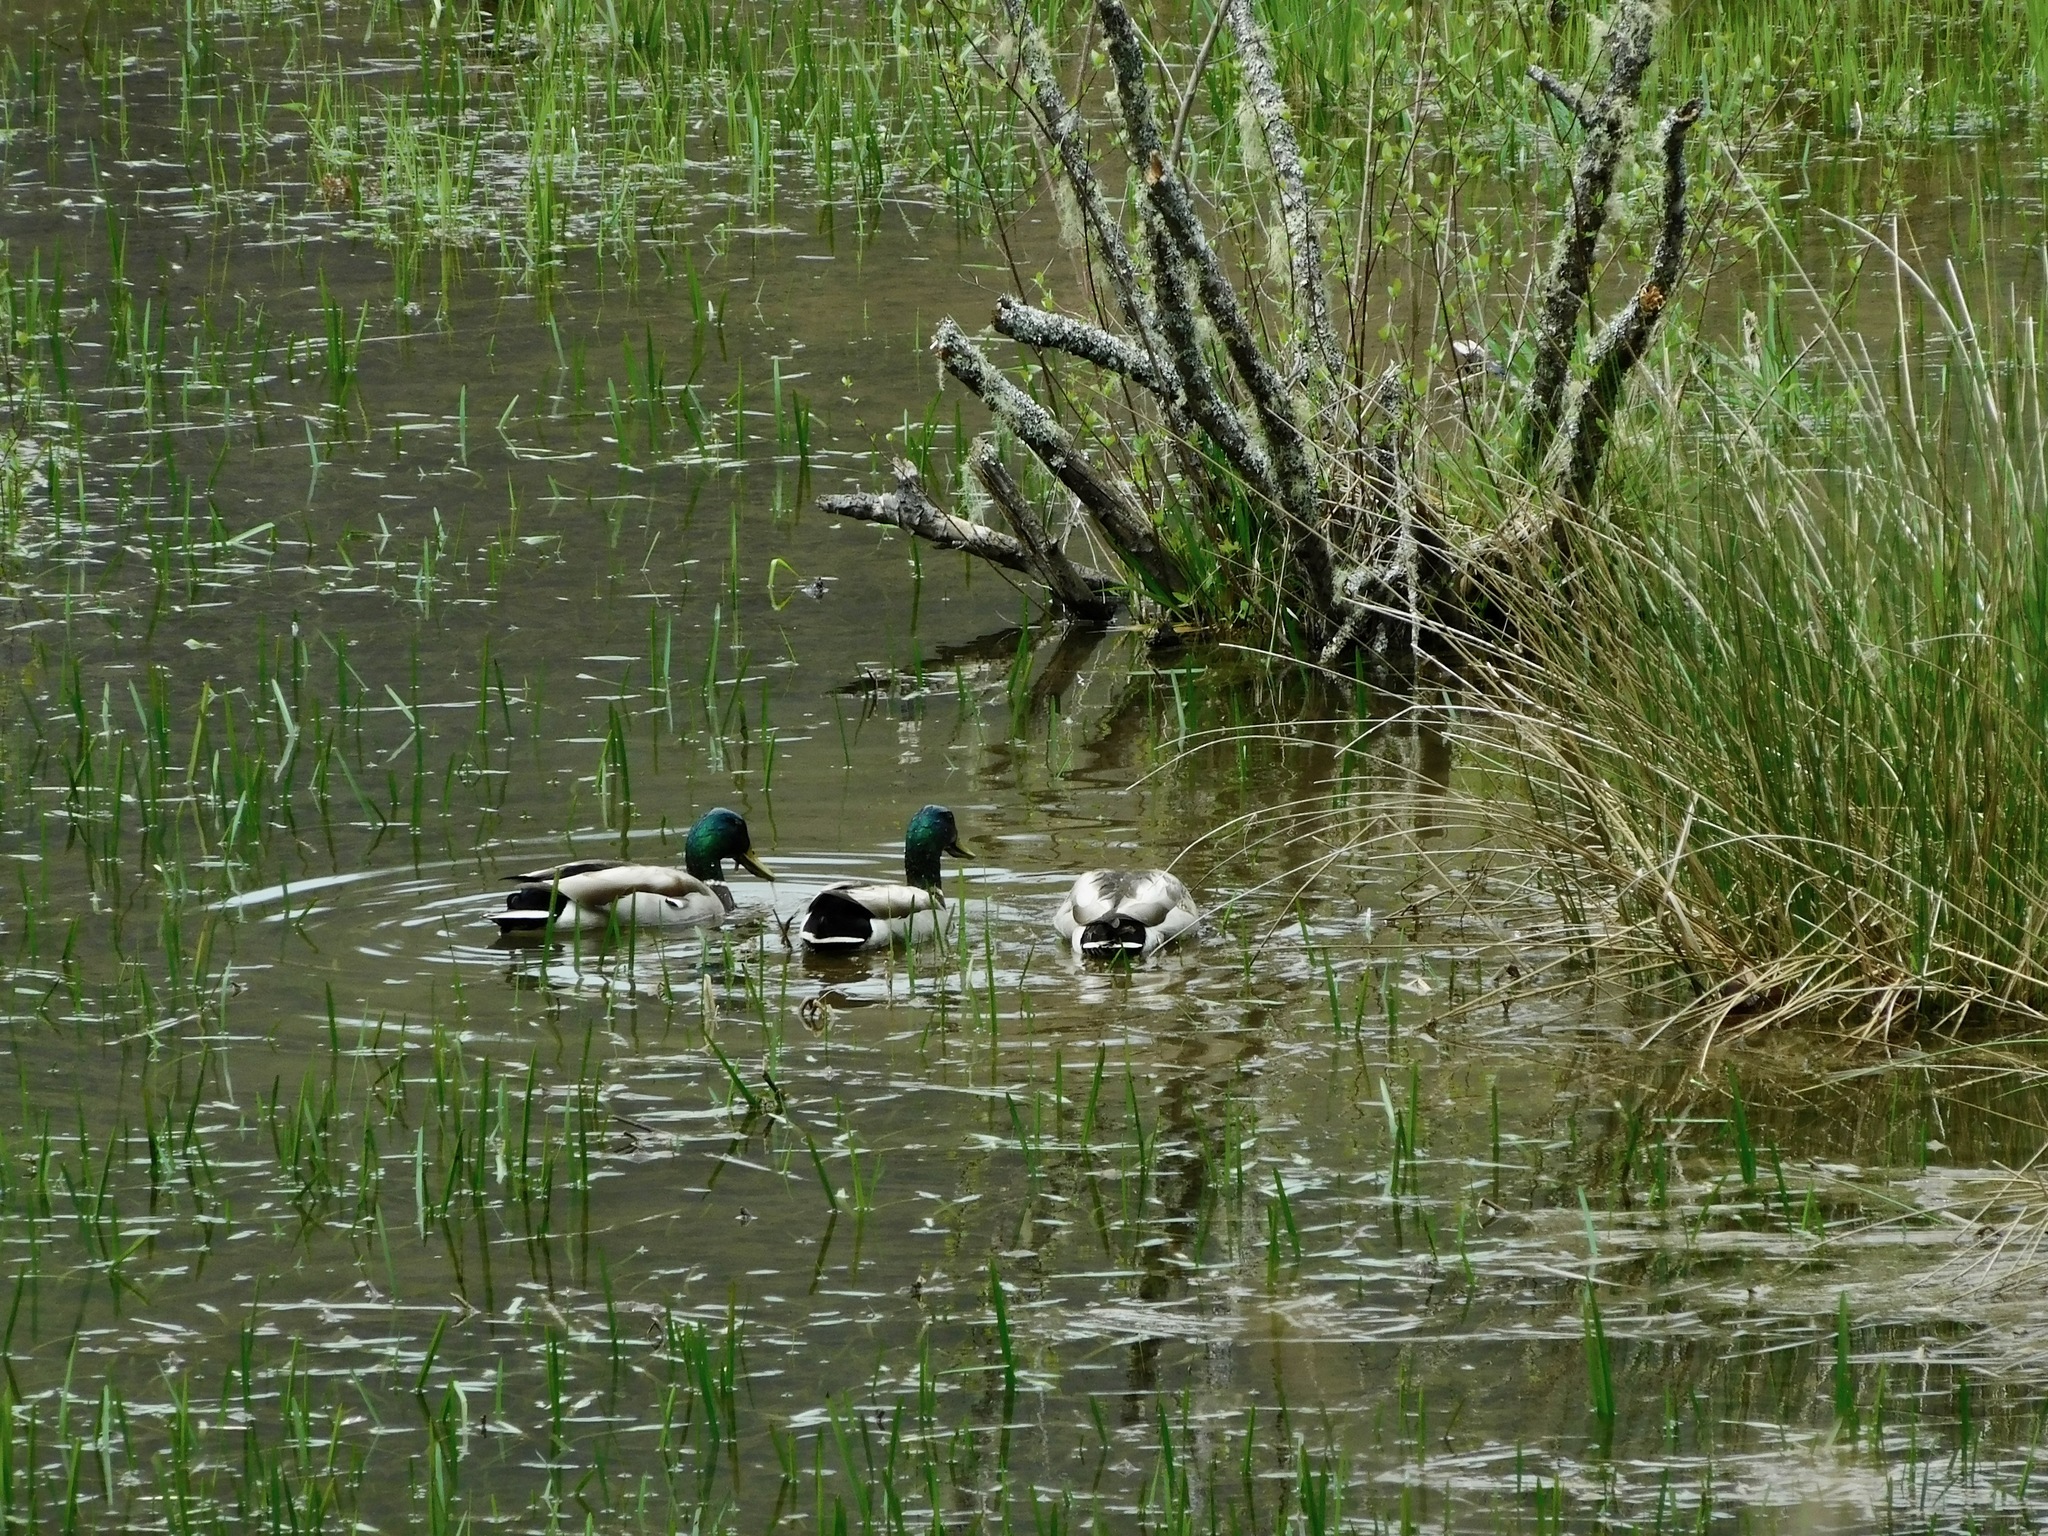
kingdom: Animalia
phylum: Chordata
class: Aves
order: Anseriformes
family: Anatidae
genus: Anas
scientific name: Anas platyrhynchos
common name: Mallard
